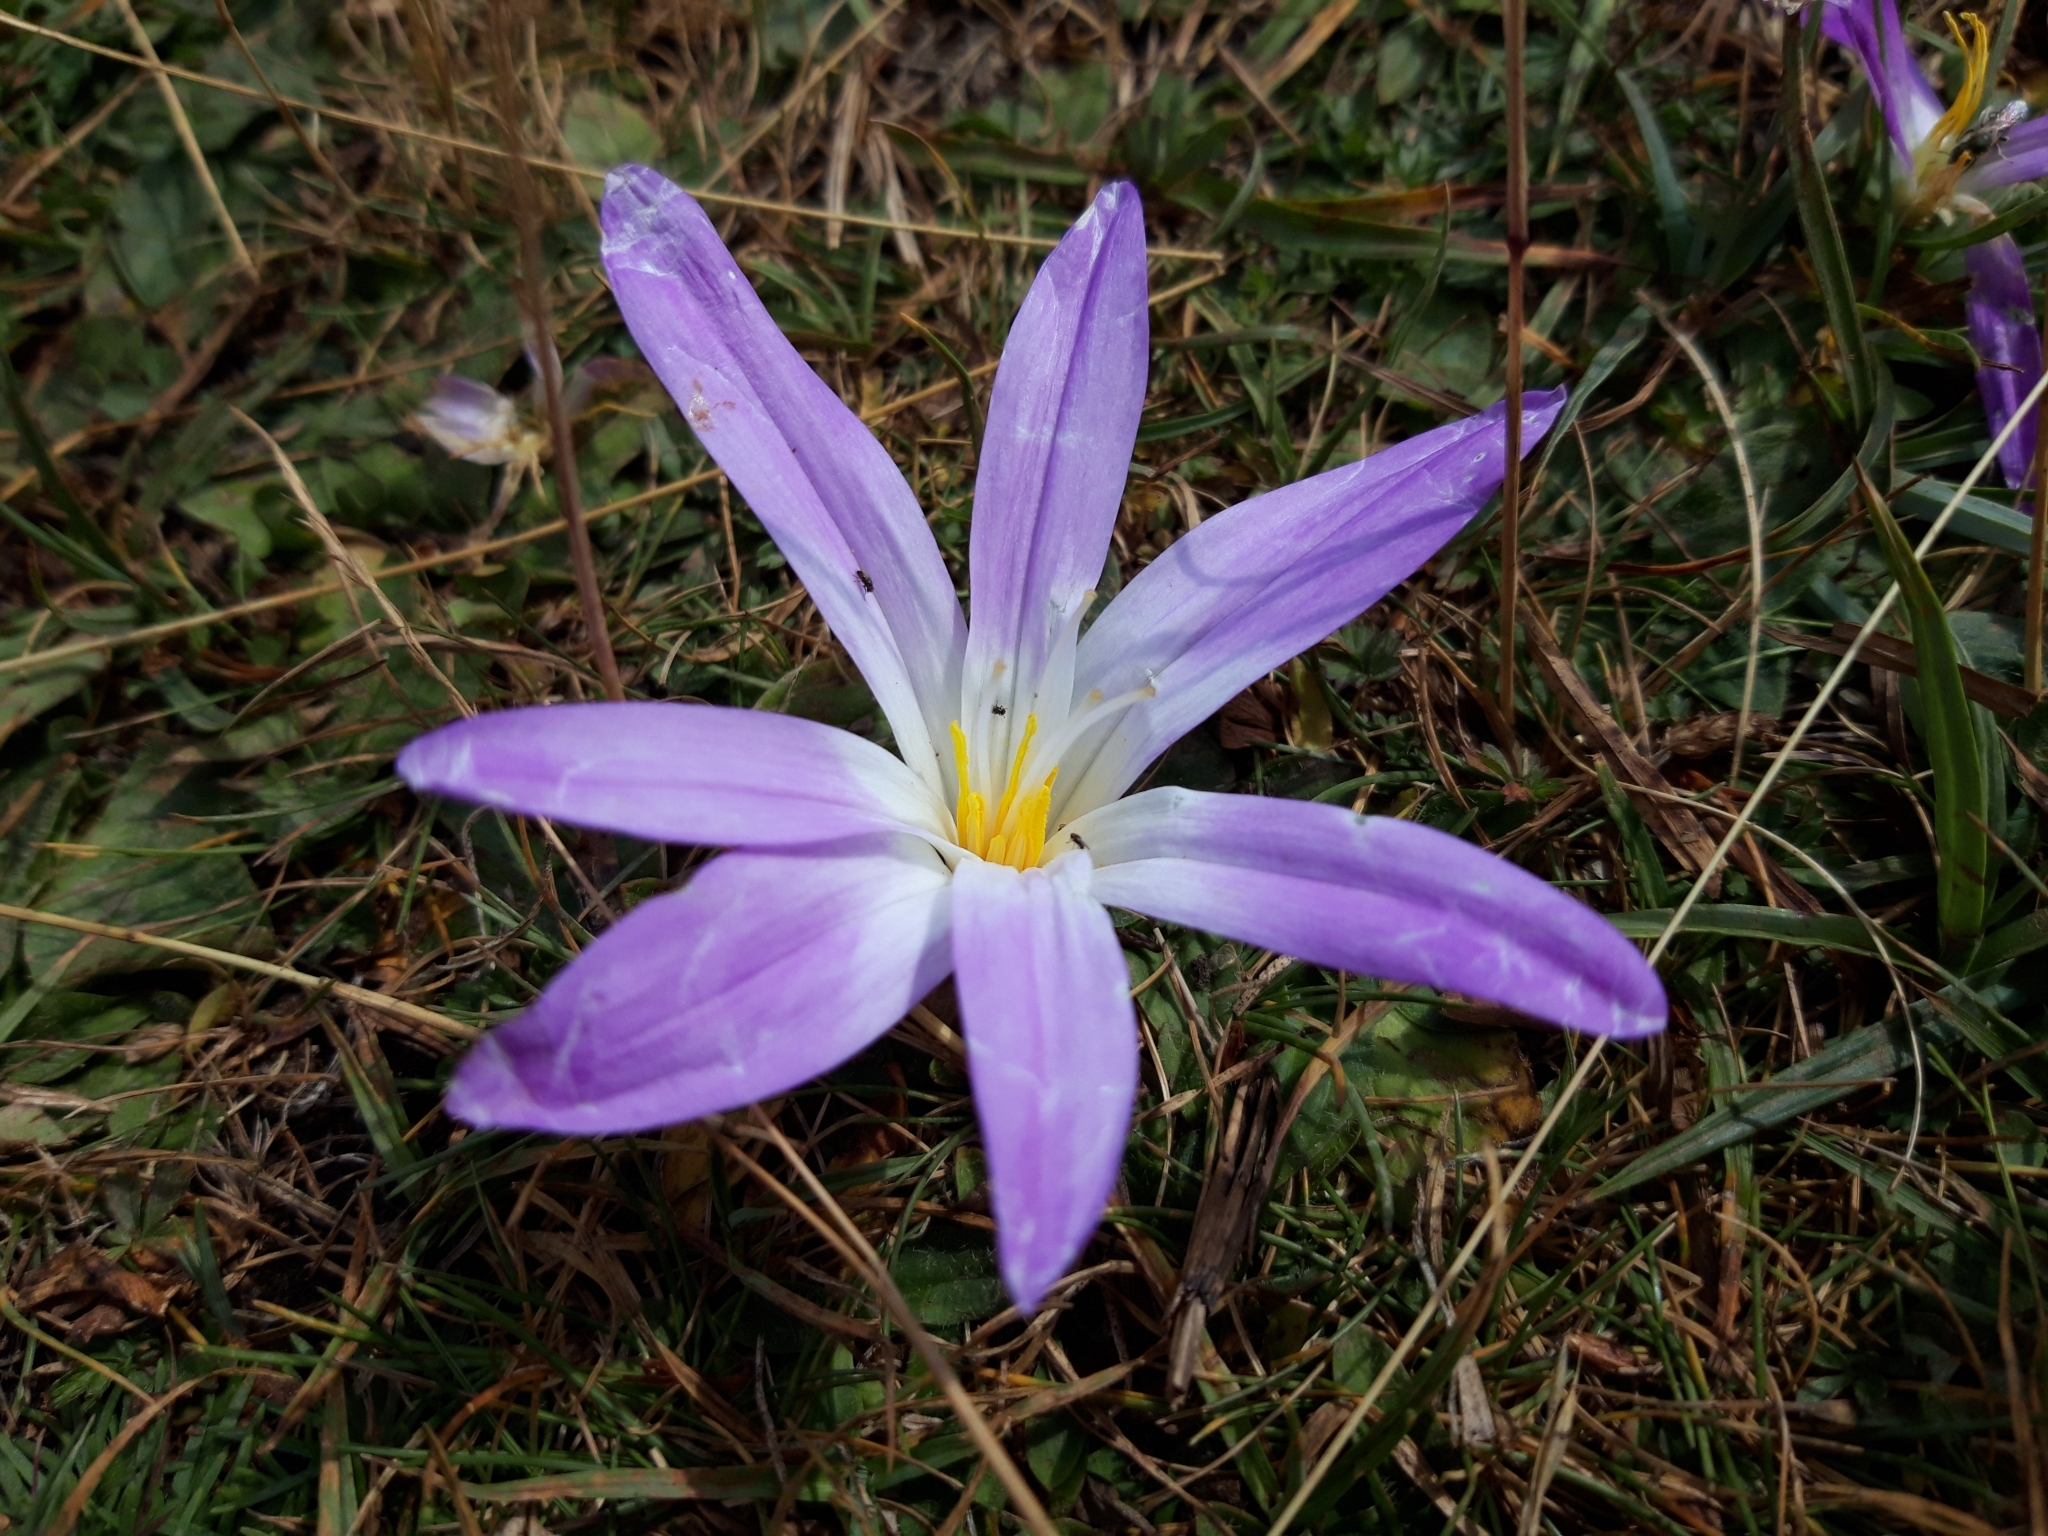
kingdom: Plantae
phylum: Tracheophyta
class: Liliopsida
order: Liliales
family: Colchicaceae
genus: Colchicum
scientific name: Colchicum montanum
